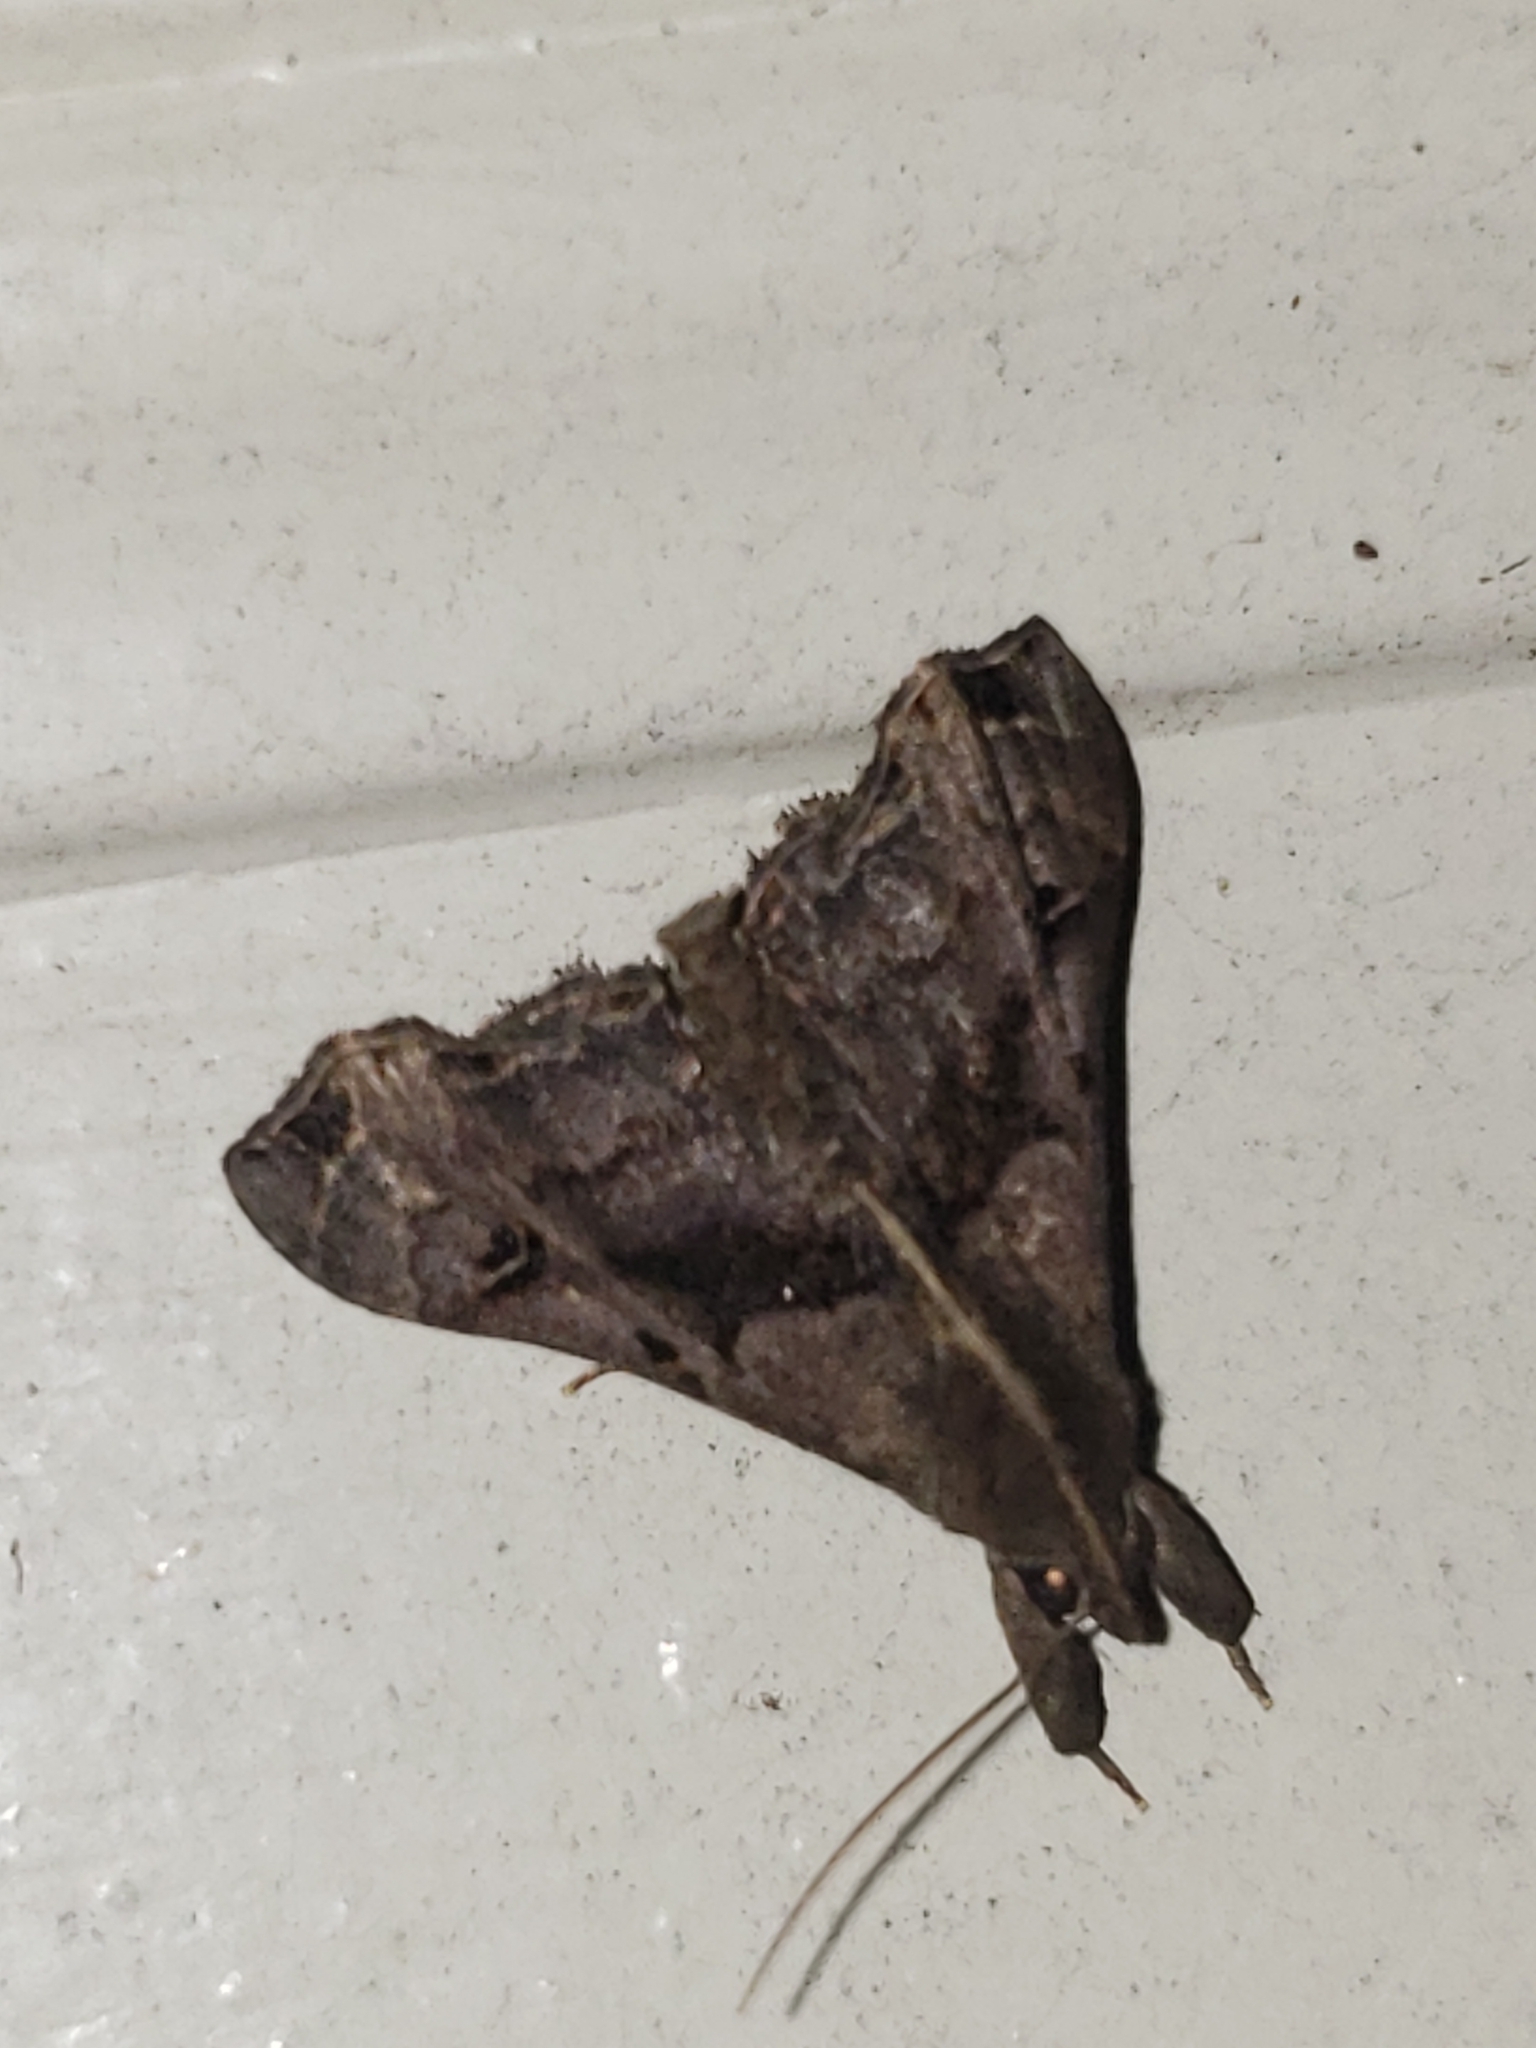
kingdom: Animalia
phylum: Arthropoda
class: Insecta
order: Lepidoptera
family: Erebidae
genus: Palthis
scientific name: Palthis asopialis
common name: Faint-spotted palthis moth
